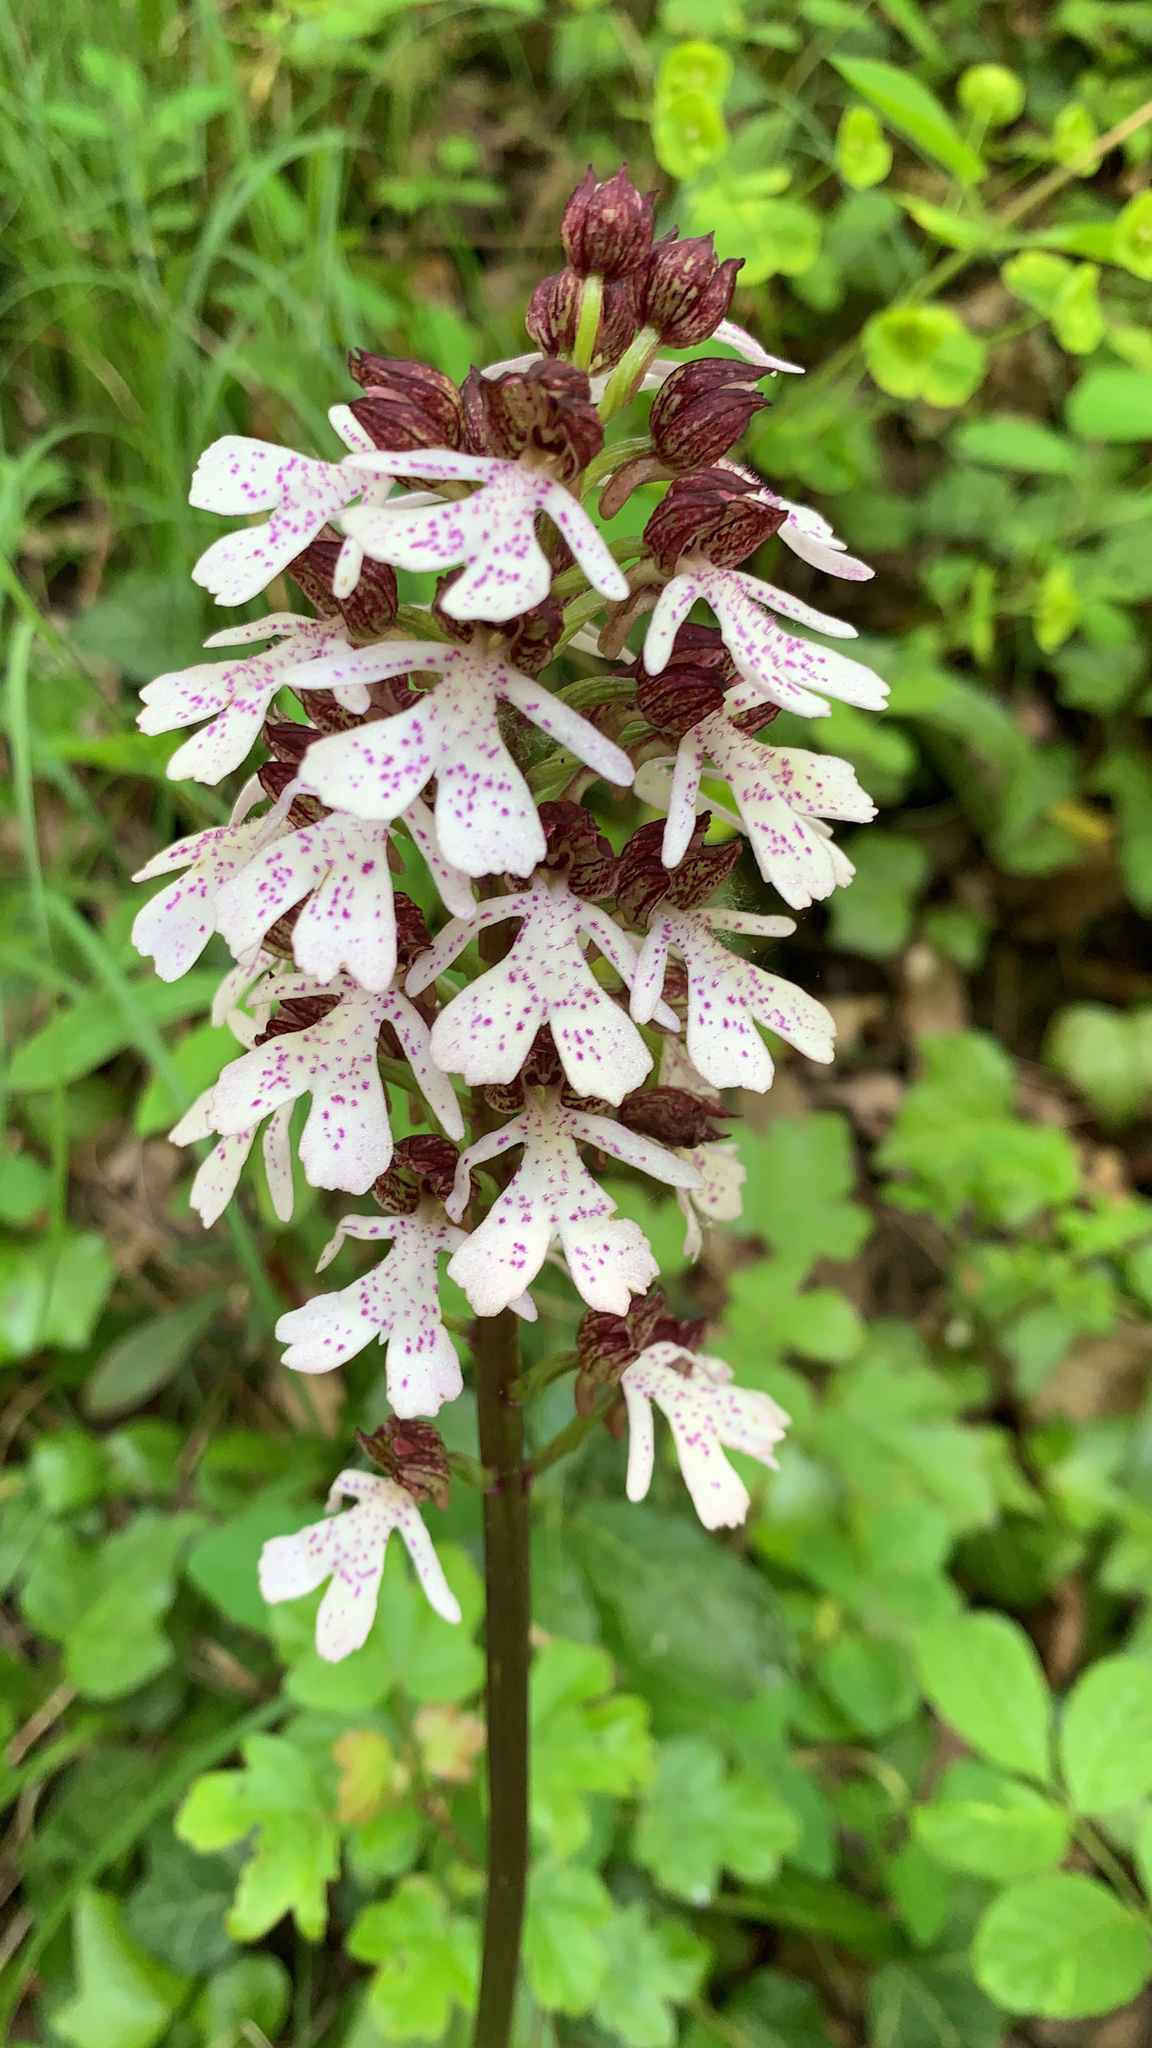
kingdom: Plantae
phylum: Tracheophyta
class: Liliopsida
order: Asparagales
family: Orchidaceae
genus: Orchis
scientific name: Orchis purpurea
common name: Lady orchid
